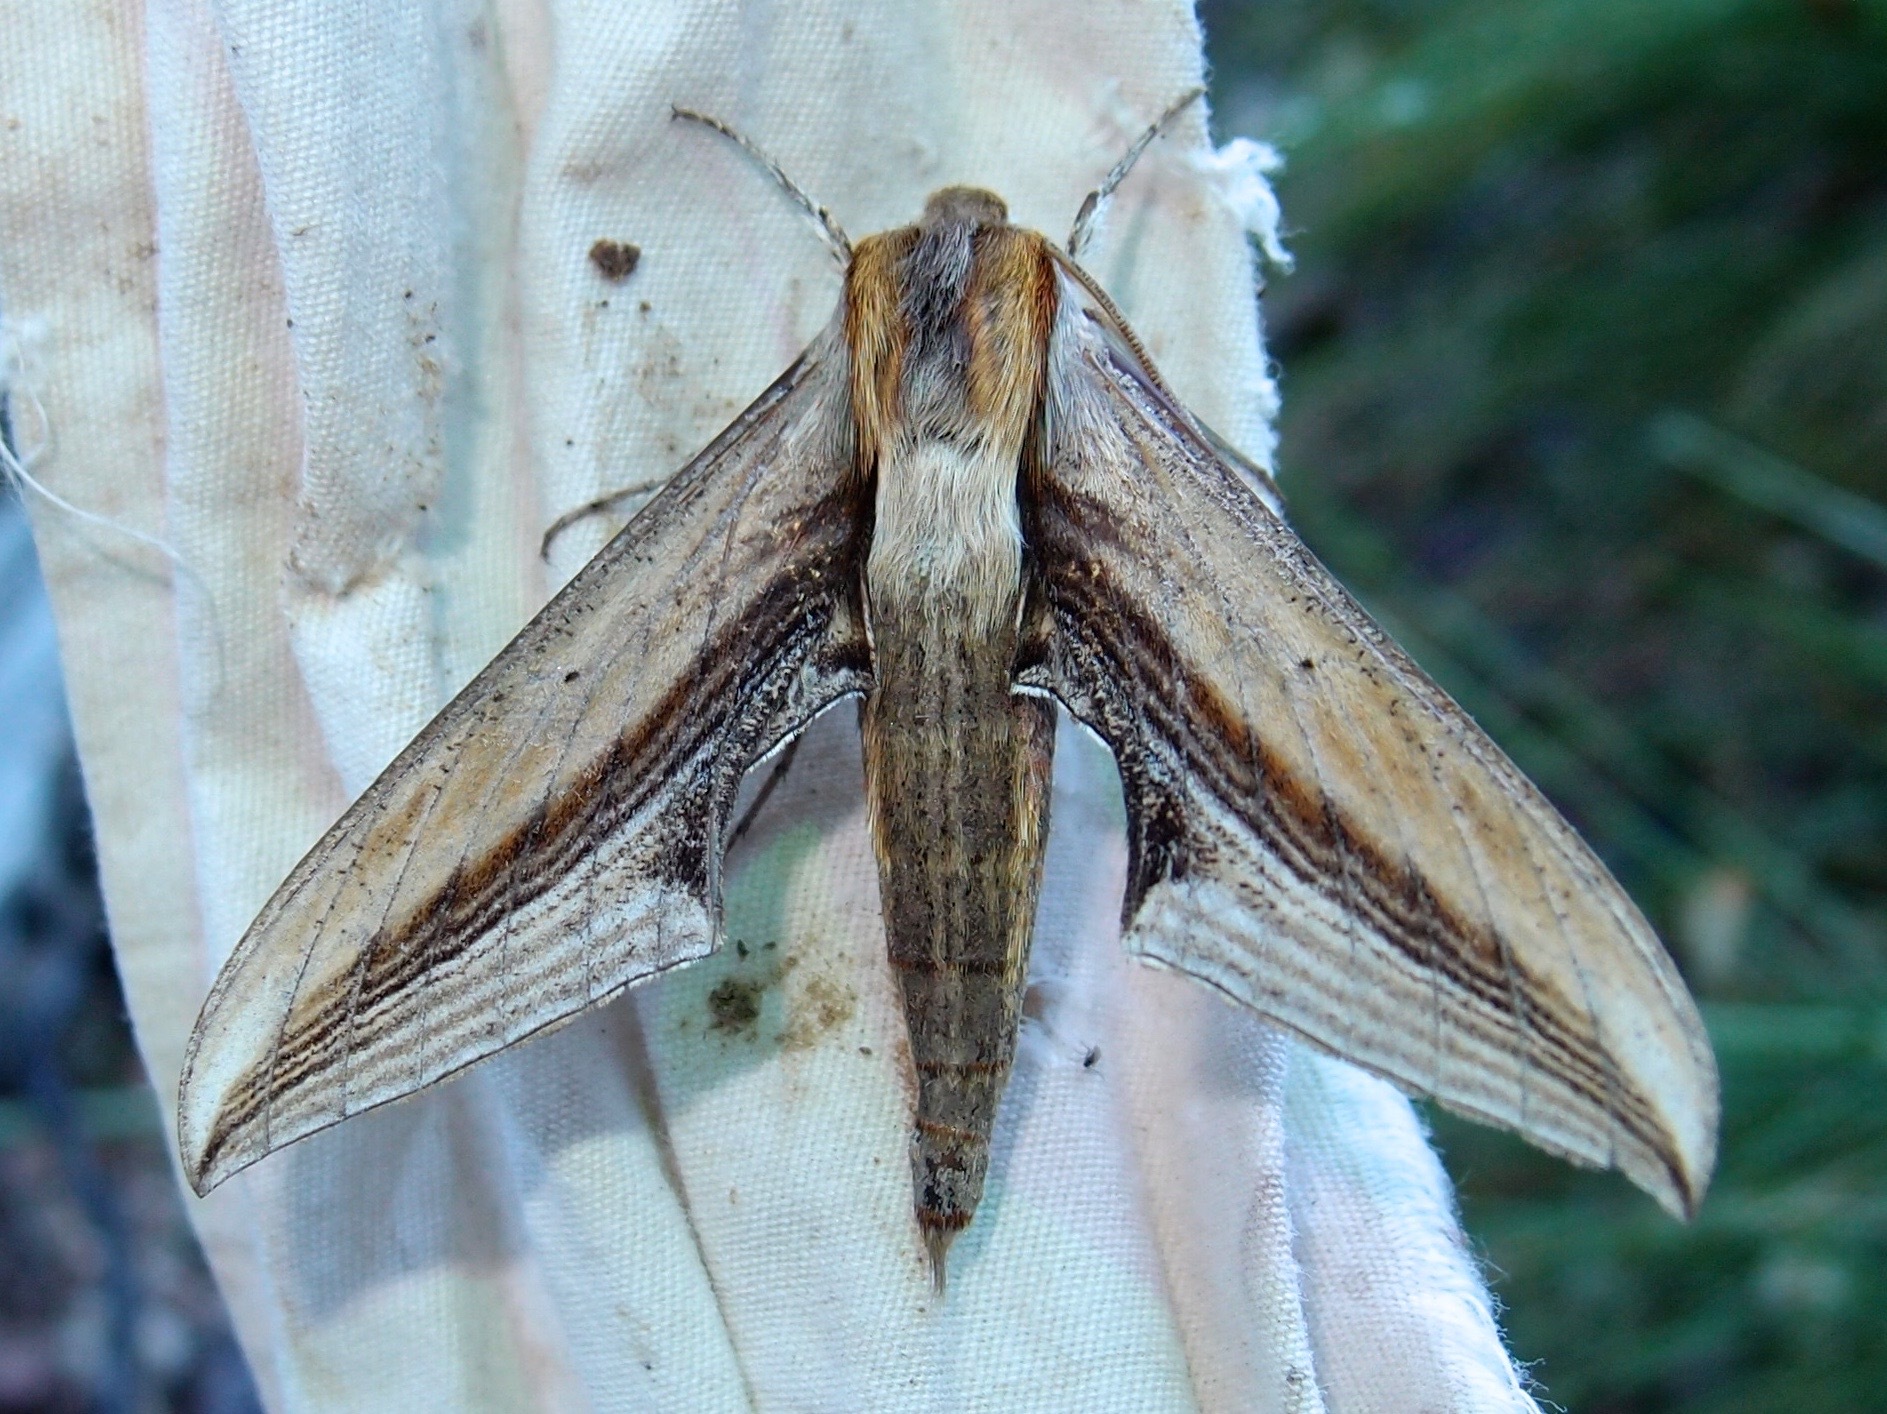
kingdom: Animalia
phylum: Arthropoda
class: Insecta
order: Lepidoptera
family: Sphingidae
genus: Xylophanes
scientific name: Xylophanes falco
